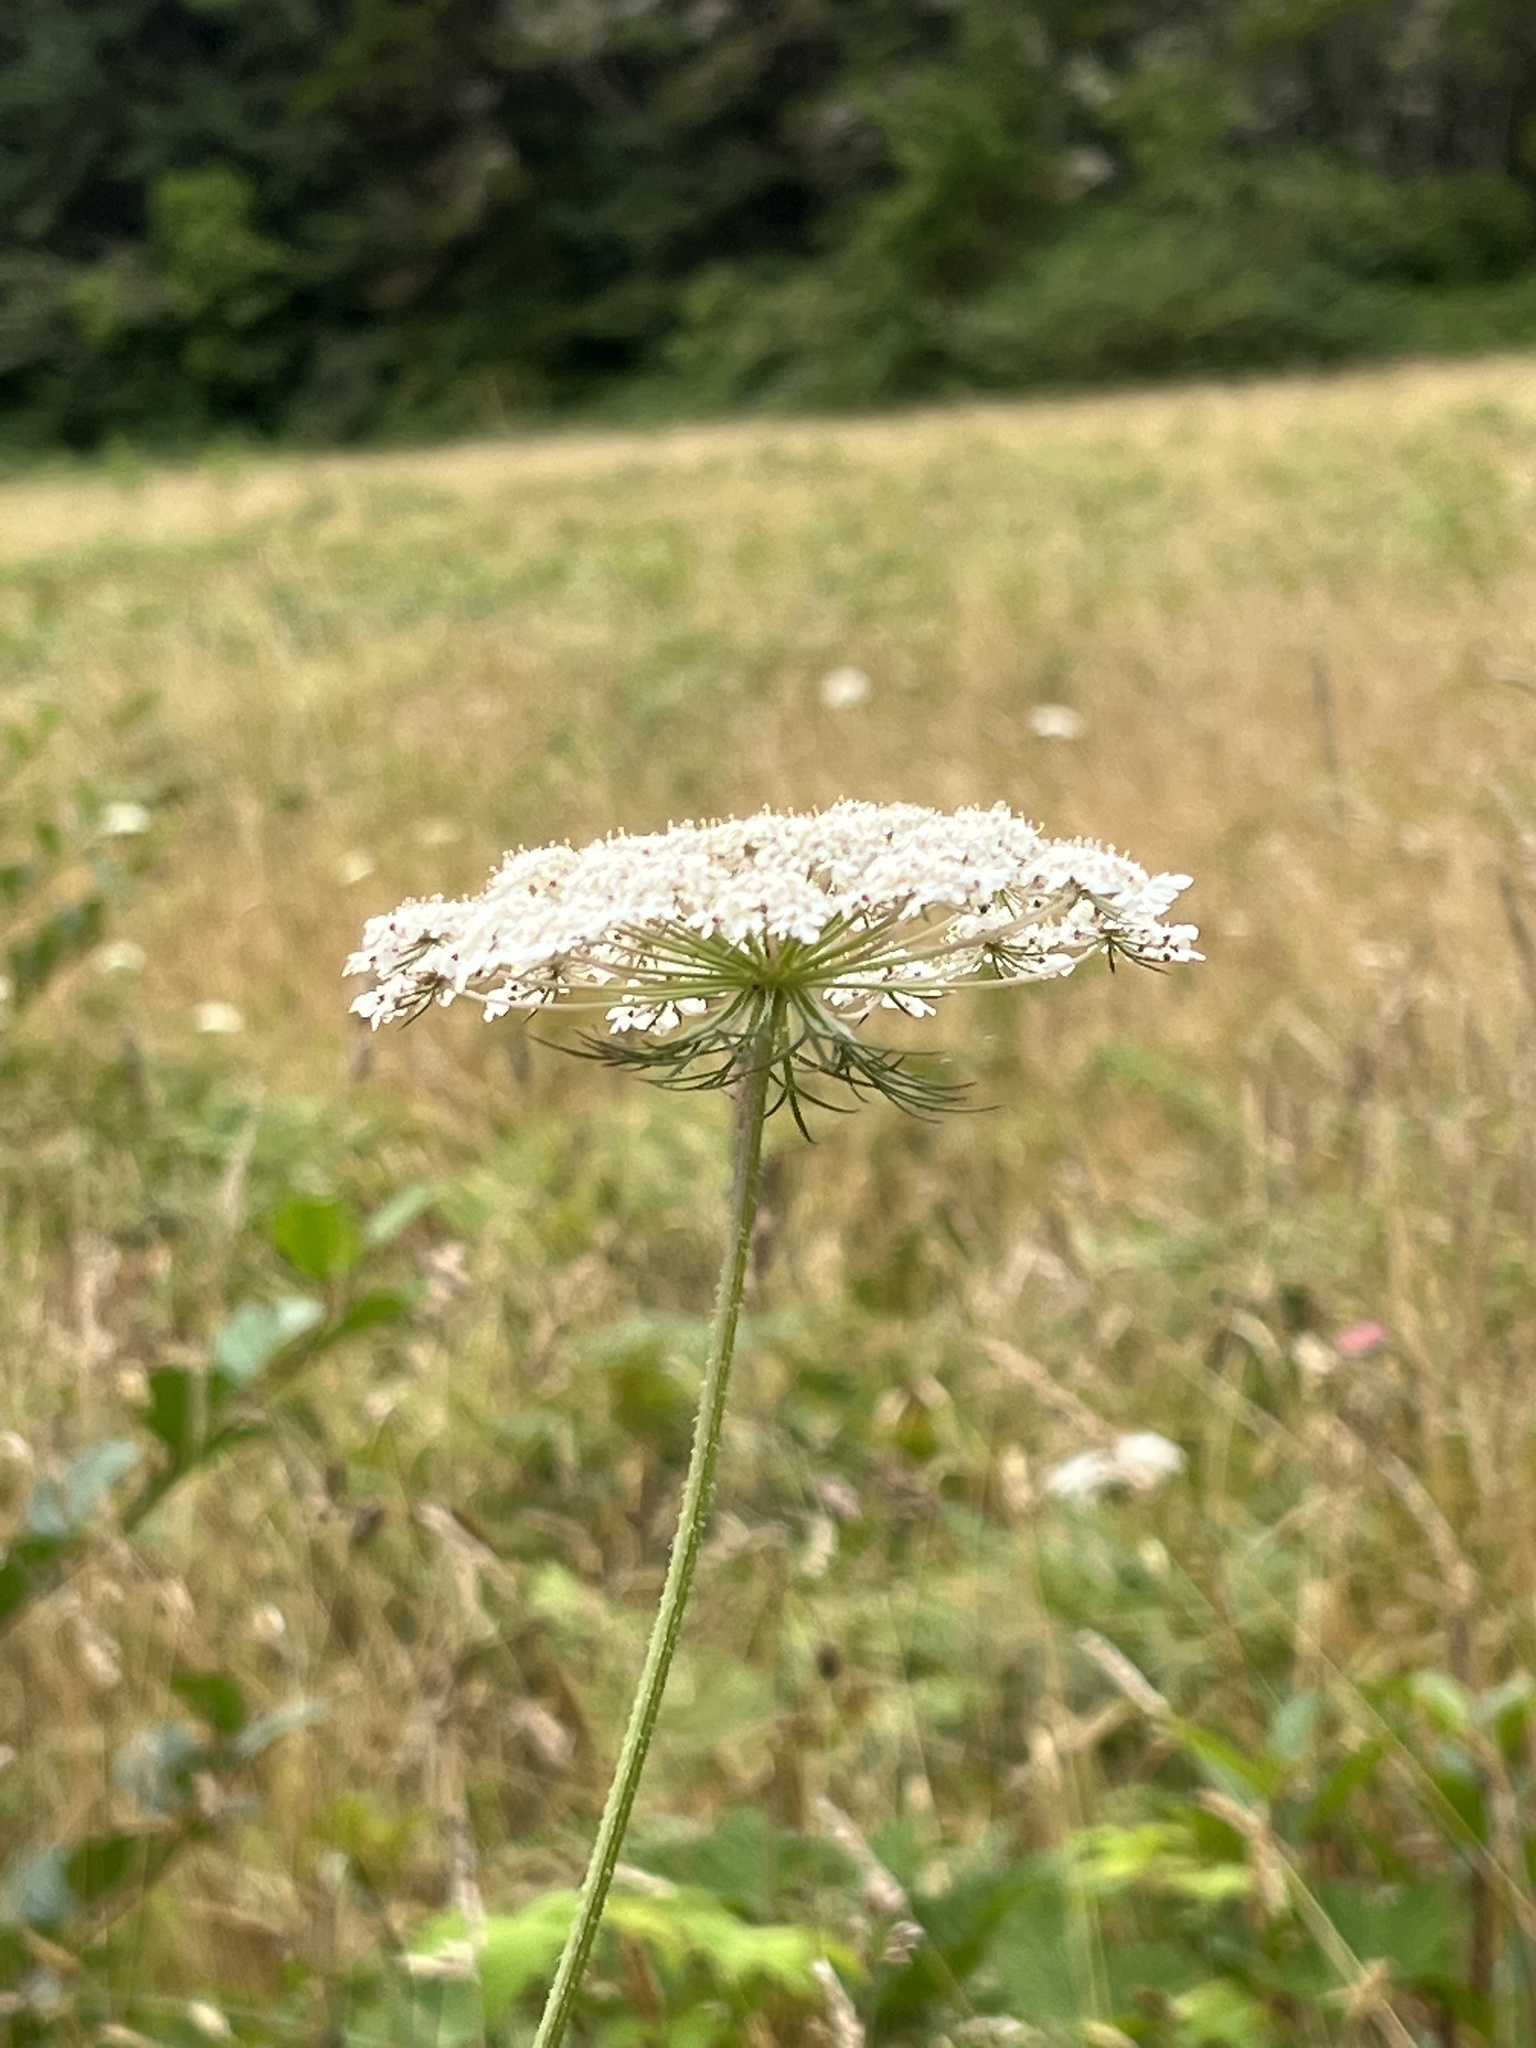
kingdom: Plantae
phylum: Tracheophyta
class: Magnoliopsida
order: Apiales
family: Apiaceae
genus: Daucus
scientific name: Daucus carota
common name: Wild carrot
